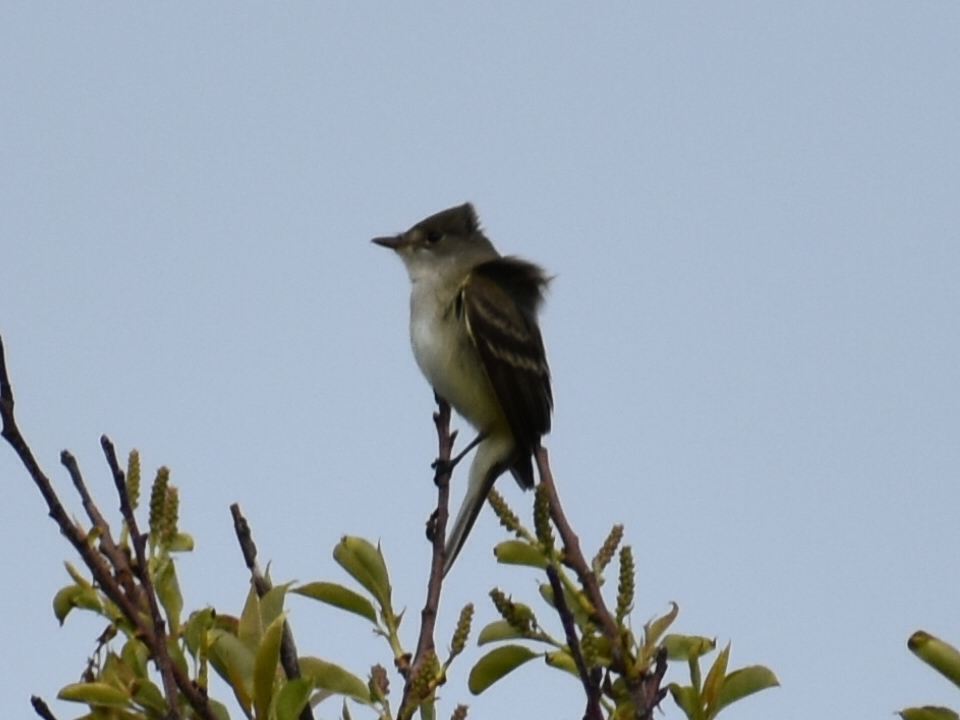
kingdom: Animalia
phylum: Chordata
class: Aves
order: Passeriformes
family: Tyrannidae
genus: Empidonax
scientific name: Empidonax
